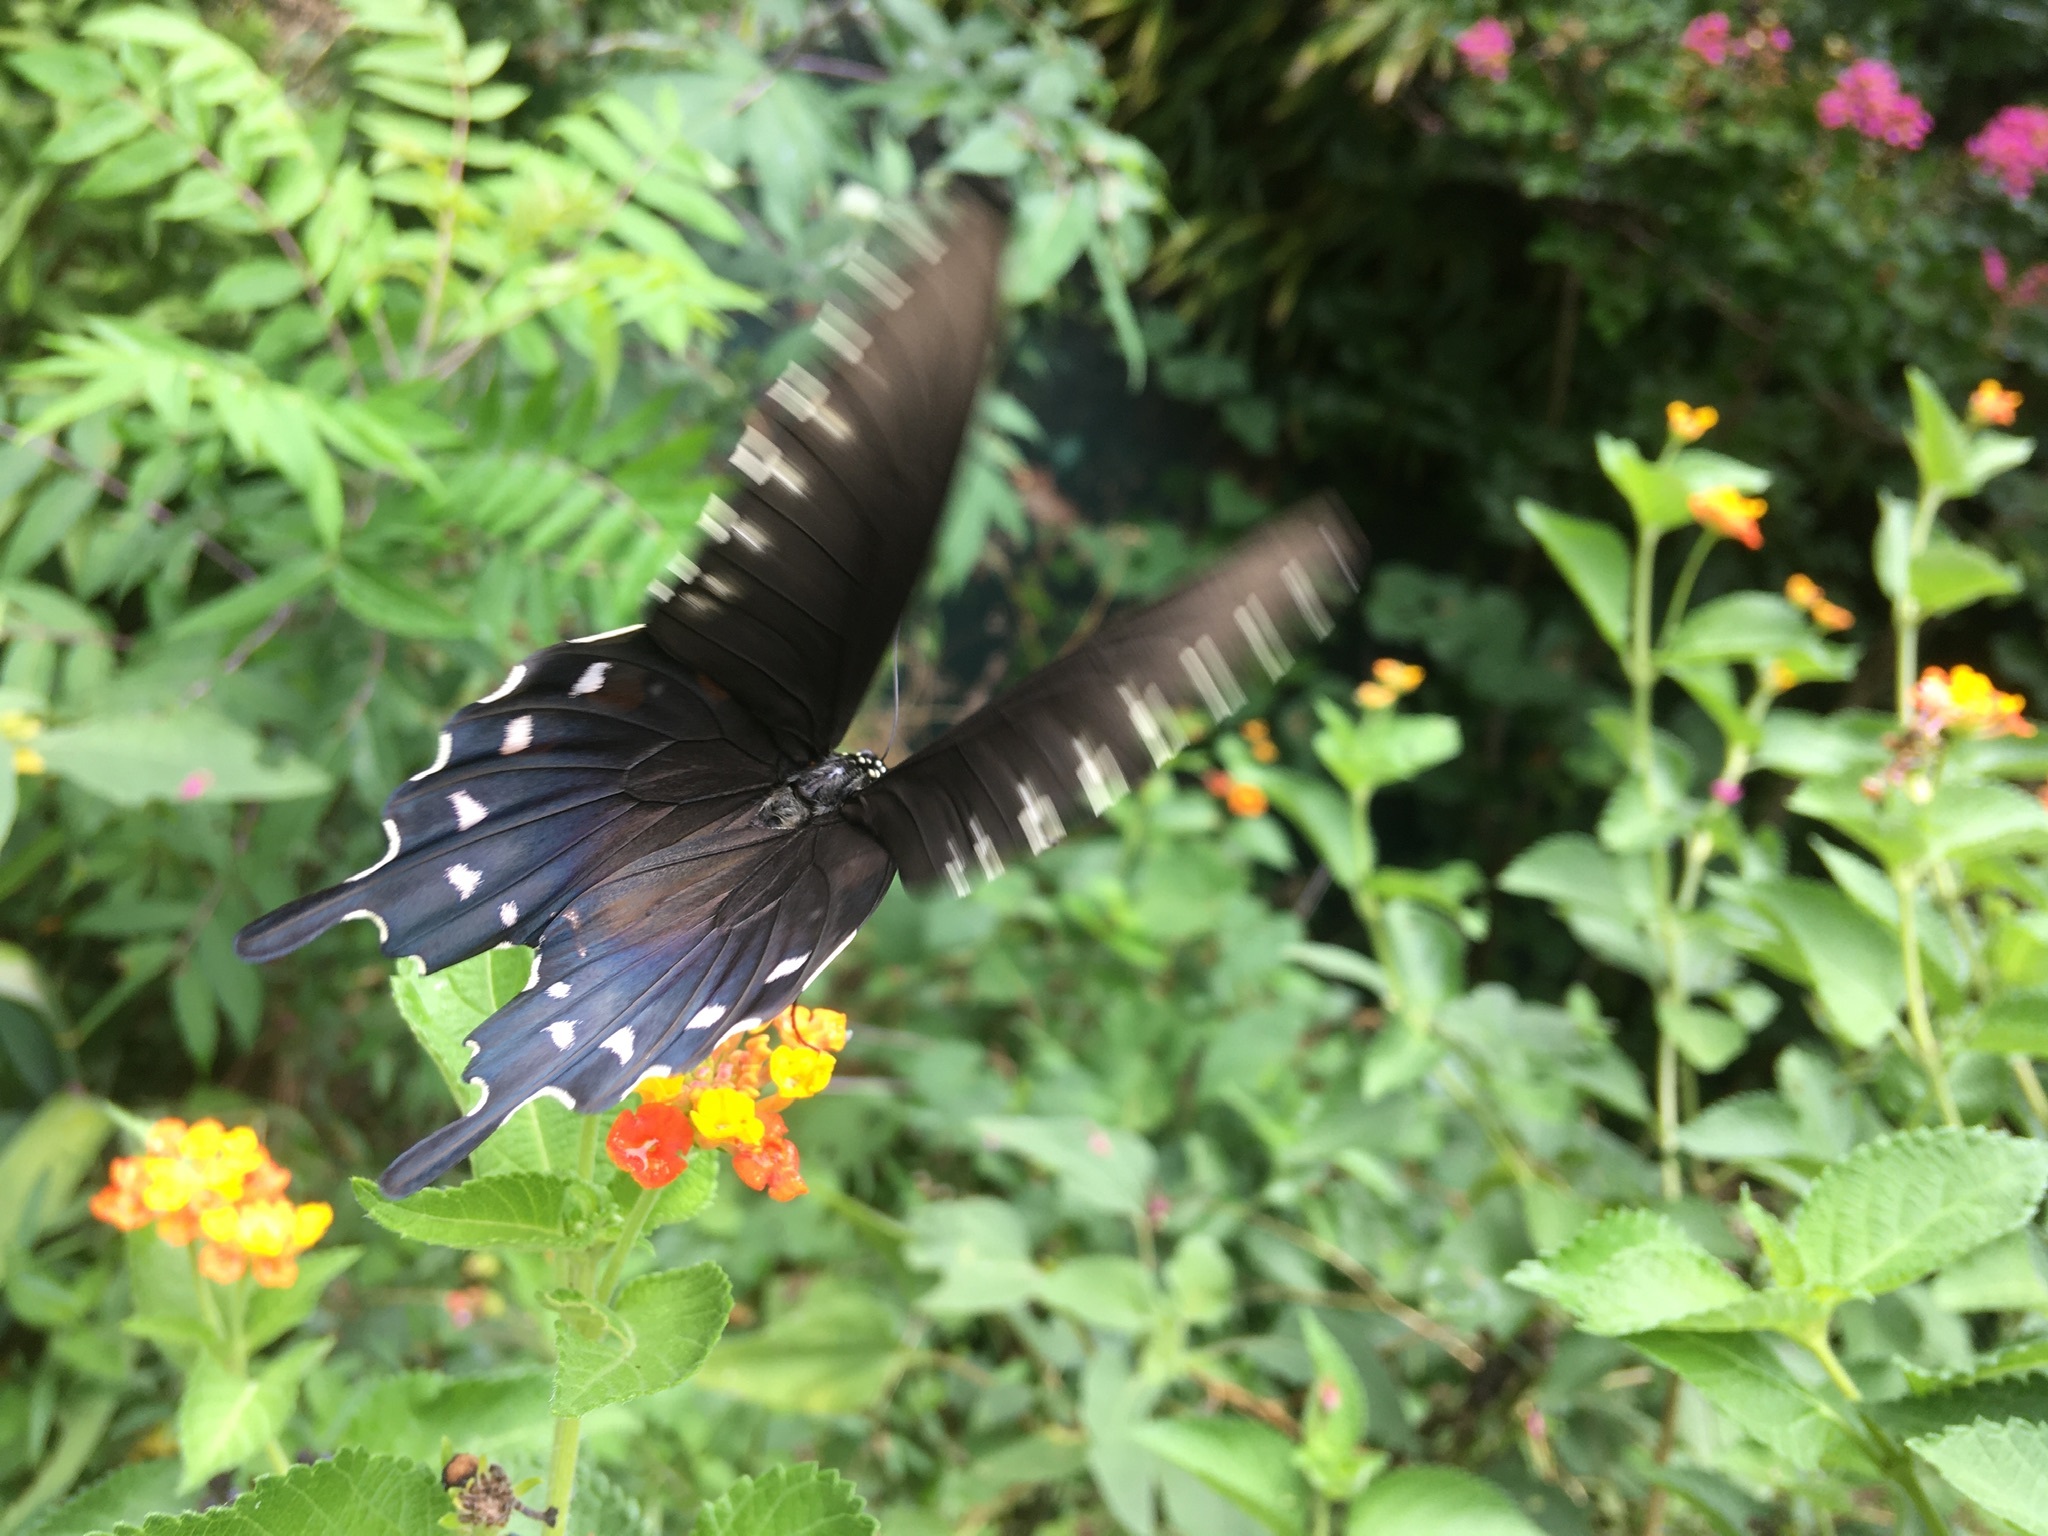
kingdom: Animalia
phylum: Arthropoda
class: Insecta
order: Lepidoptera
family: Papilionidae
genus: Battus
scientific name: Battus philenor
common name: Pipevine swallowtail
